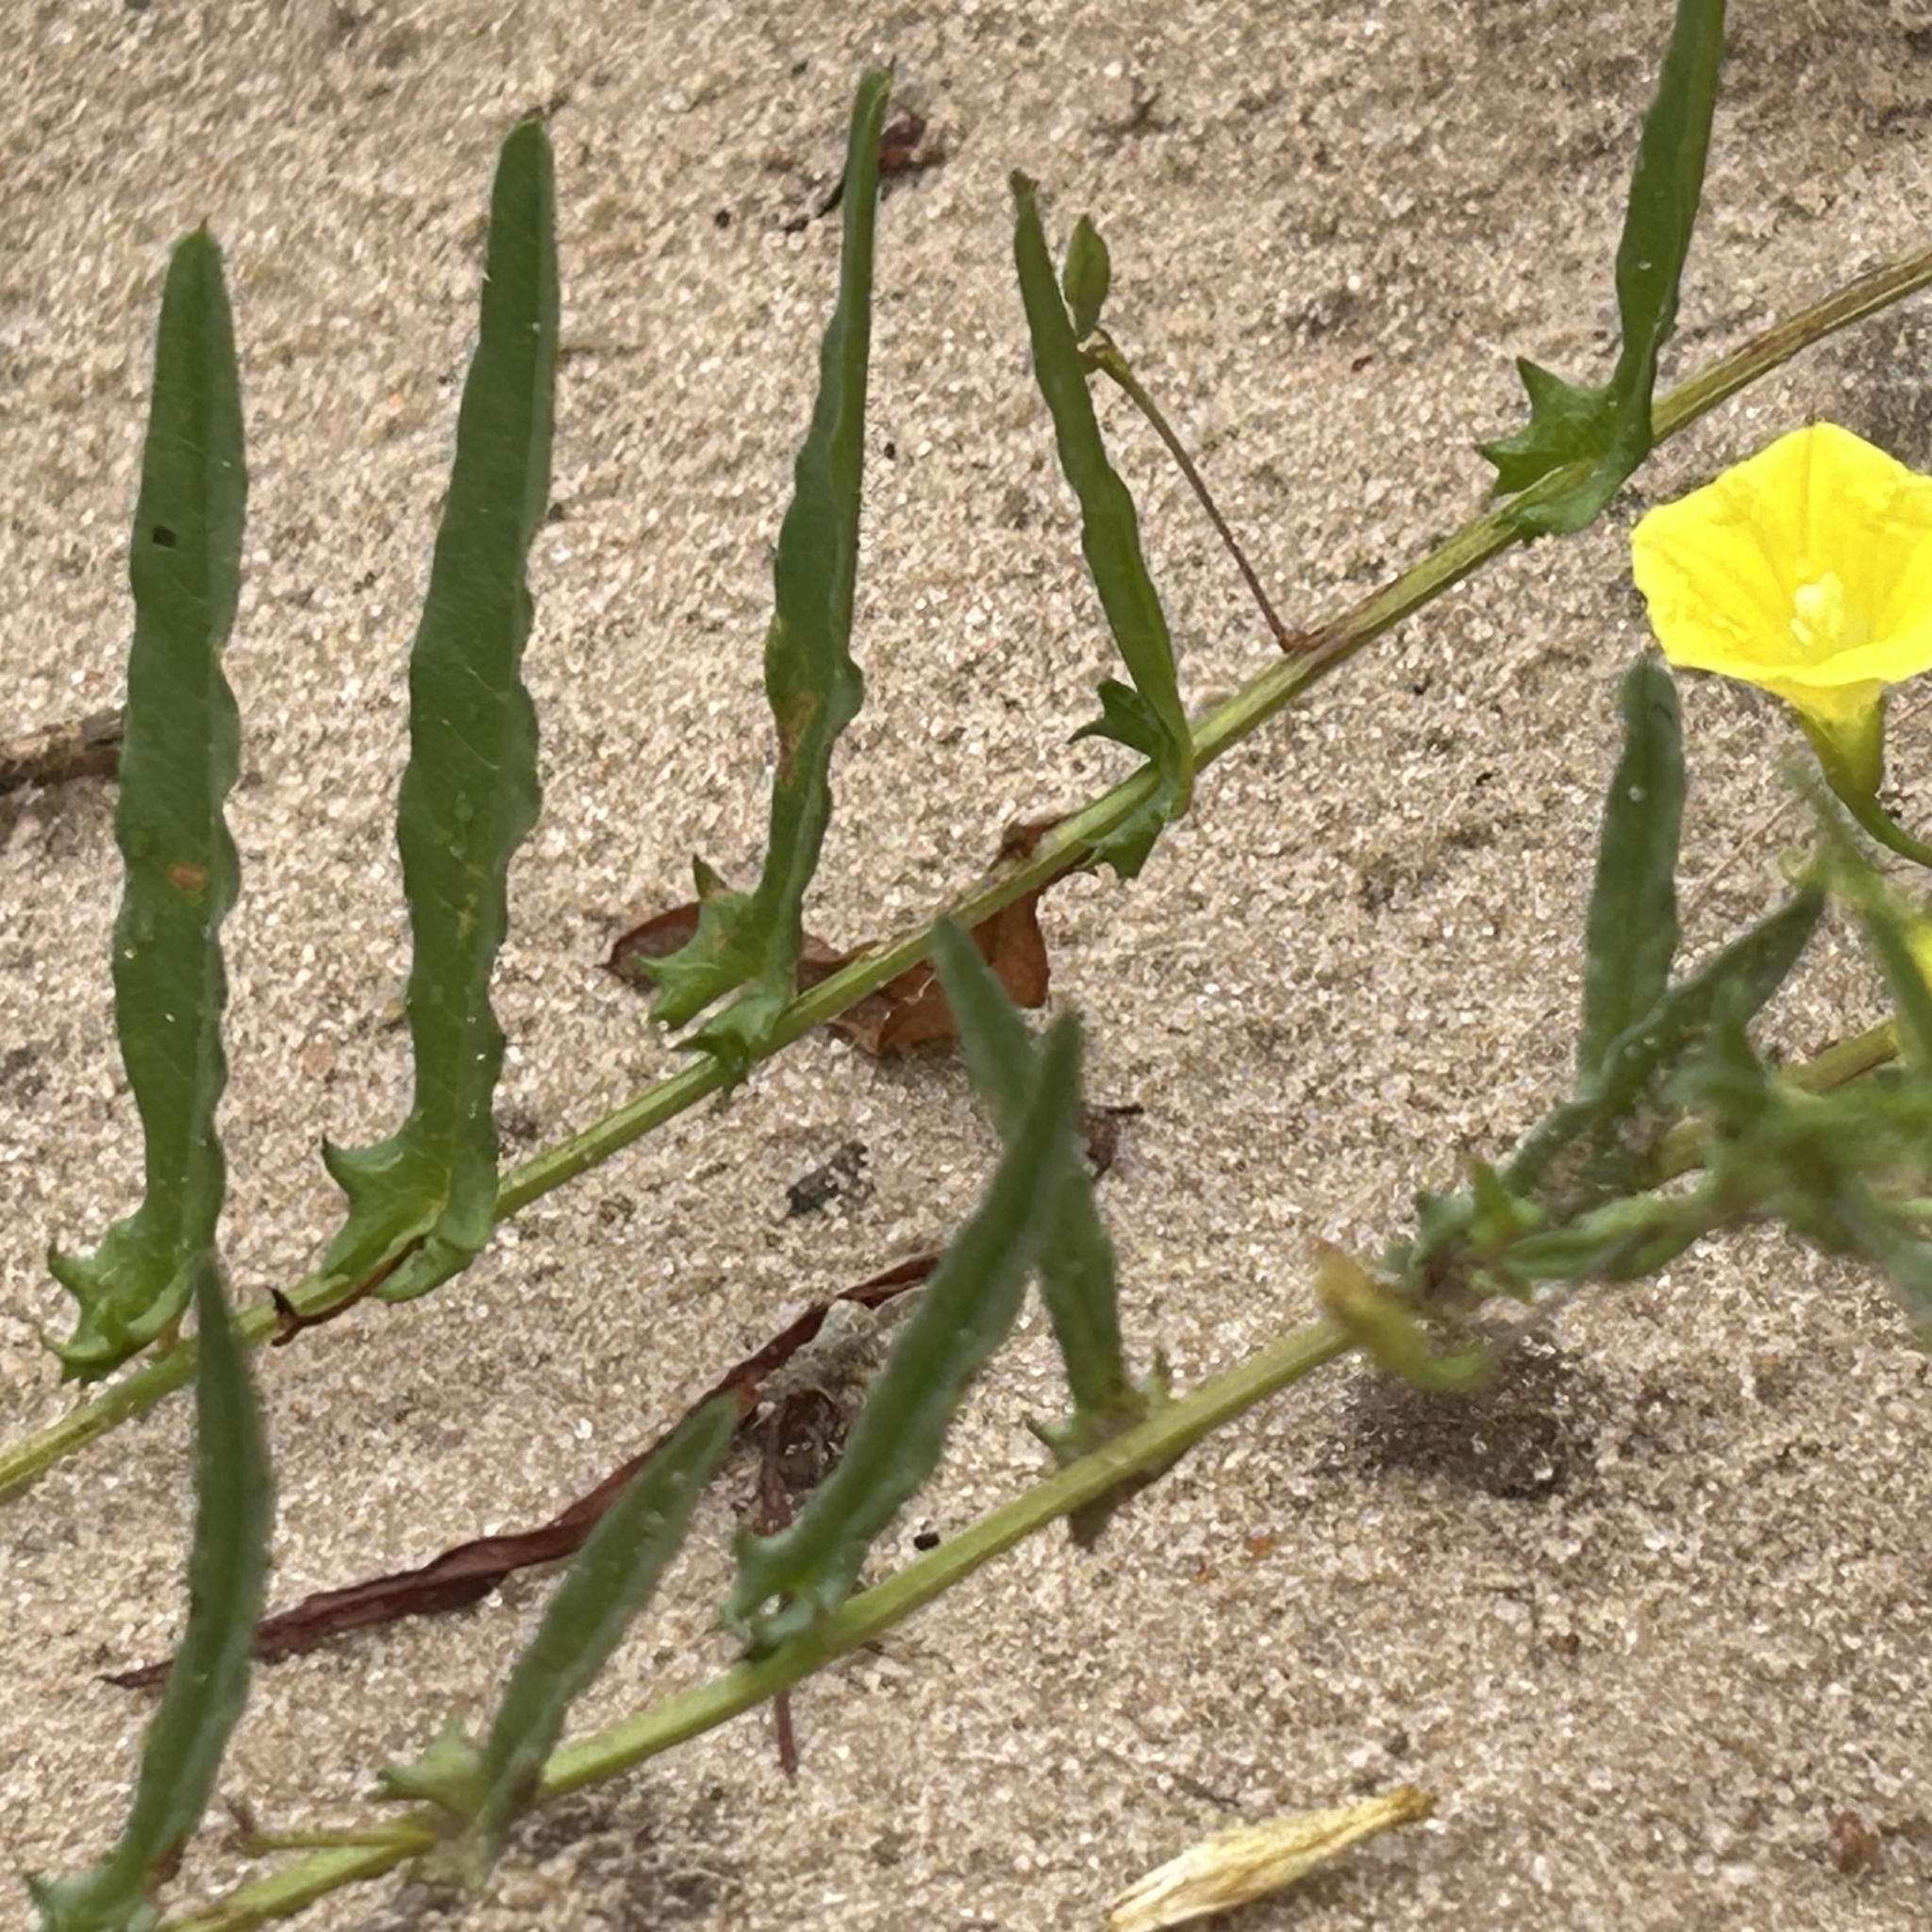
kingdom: Plantae
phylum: Tracheophyta
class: Magnoliopsida
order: Solanales
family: Convolvulaceae
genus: Xenostegia
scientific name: Xenostegia tridentata
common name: African morningvine
